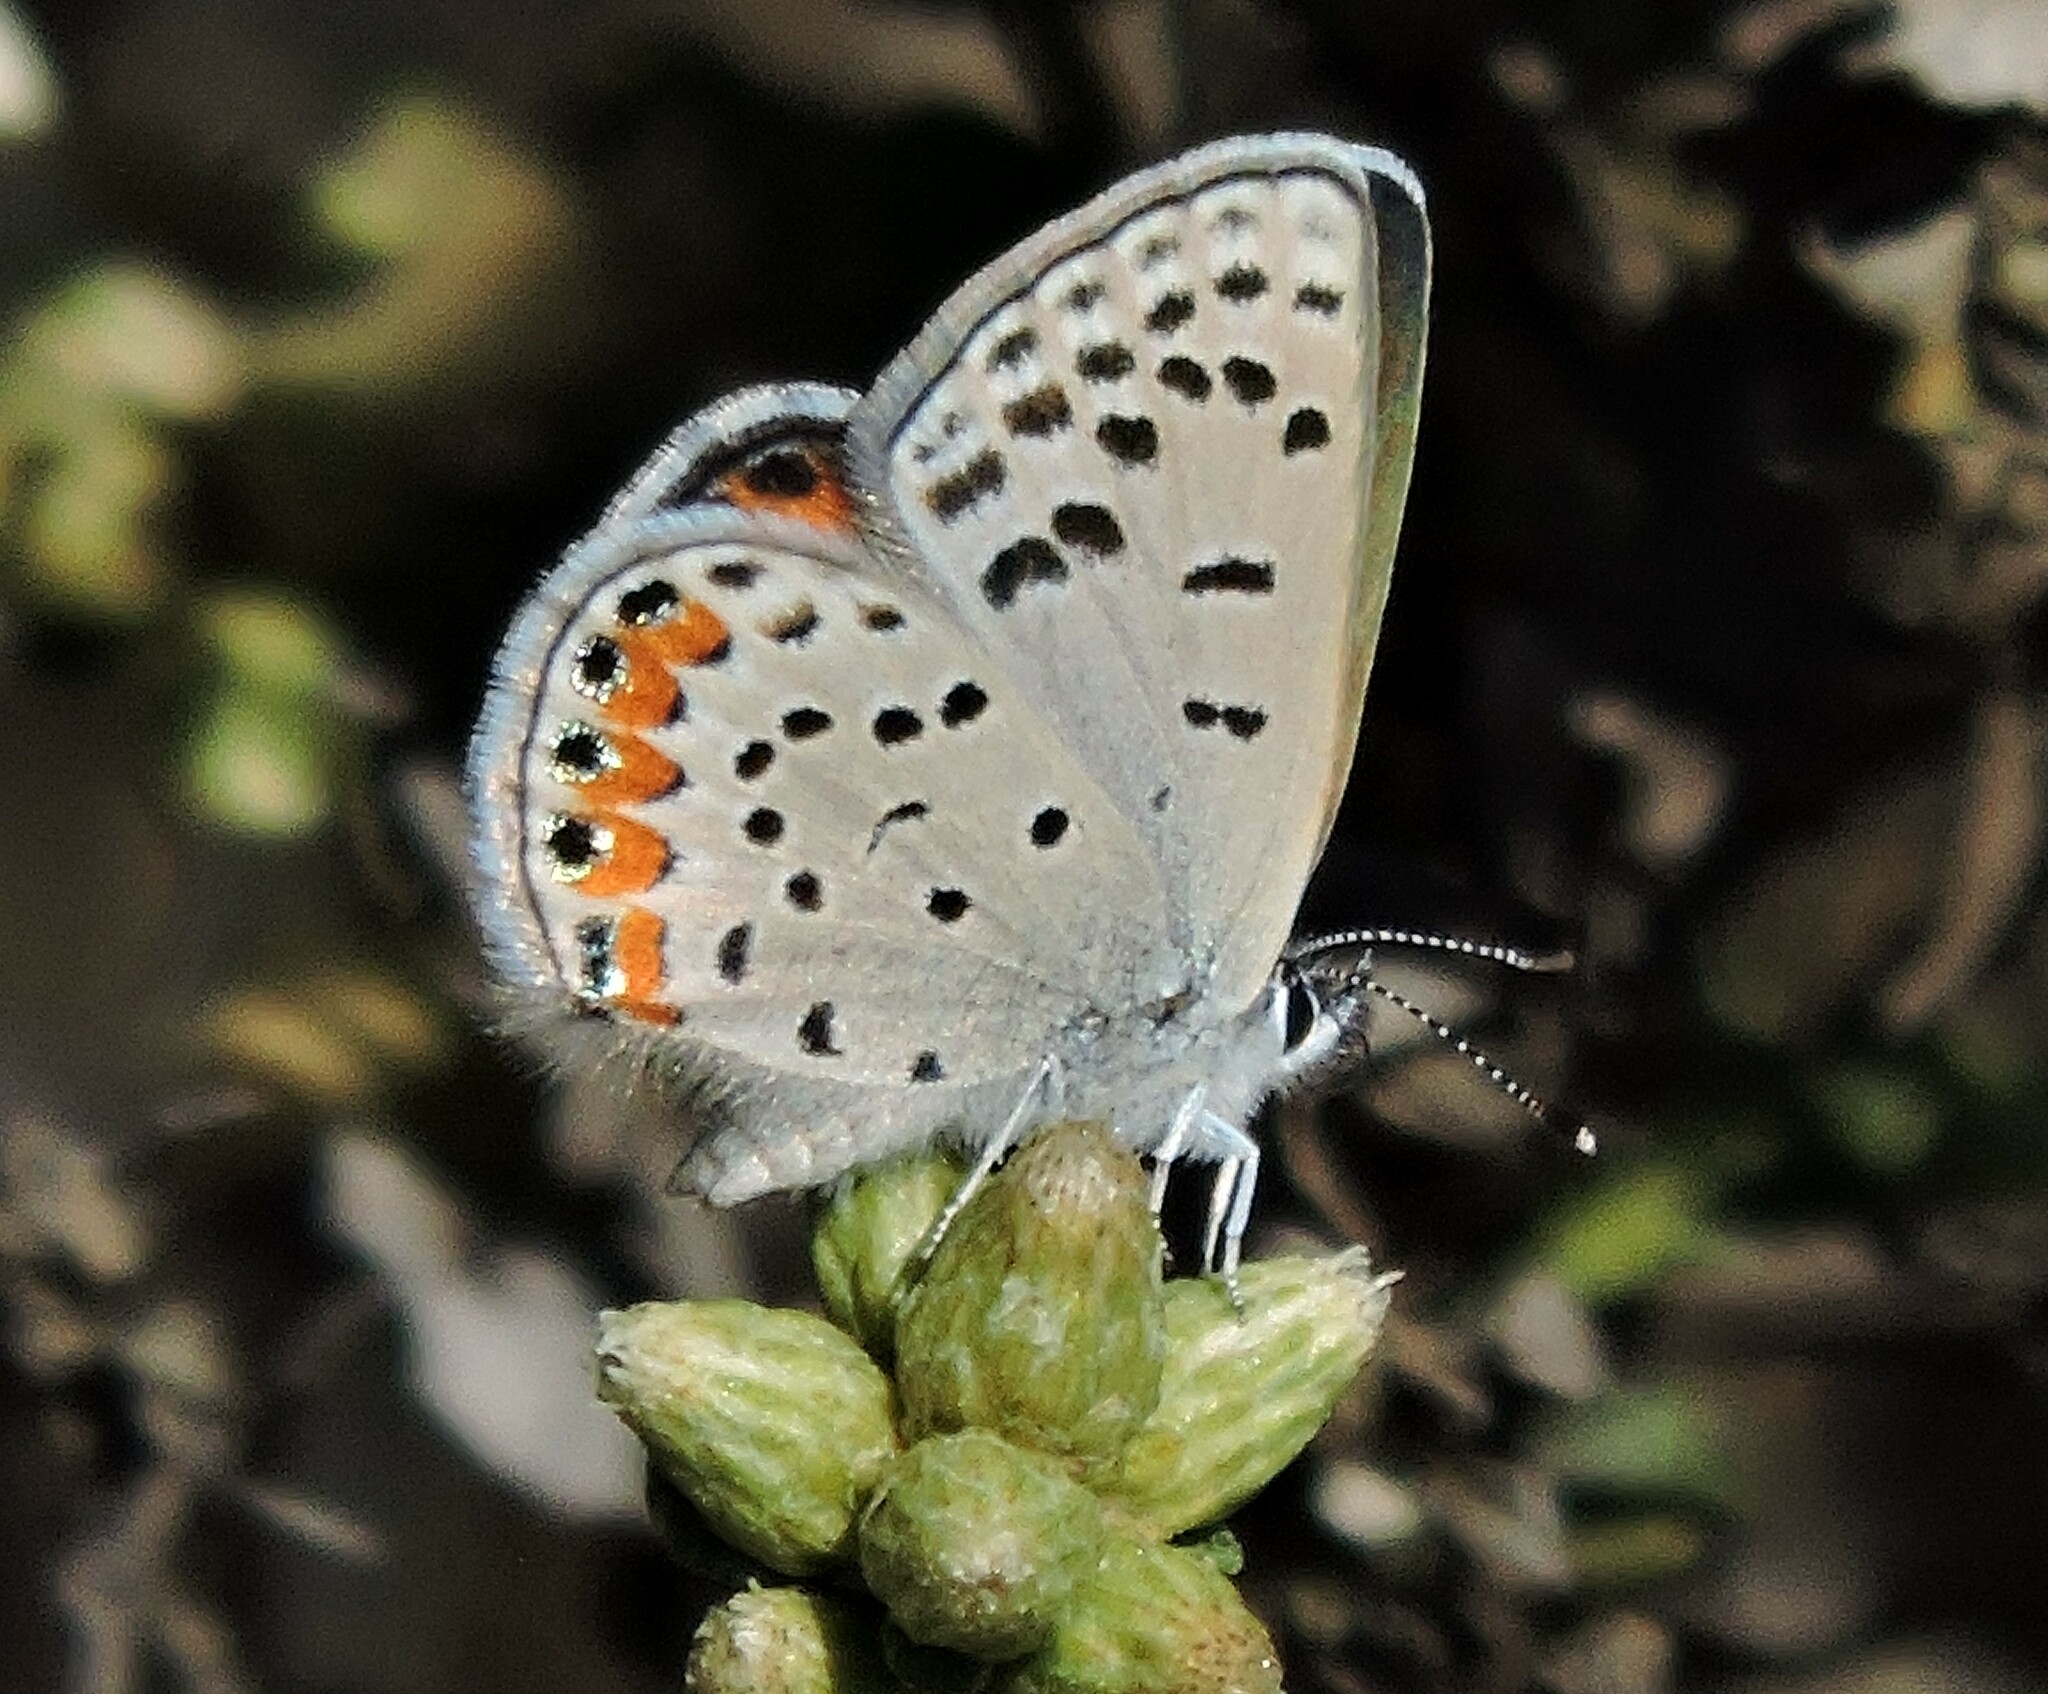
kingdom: Animalia
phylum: Arthropoda
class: Insecta
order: Lepidoptera
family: Lycaenidae
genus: Icaricia
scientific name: Icaricia acmon
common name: Acmon blue
